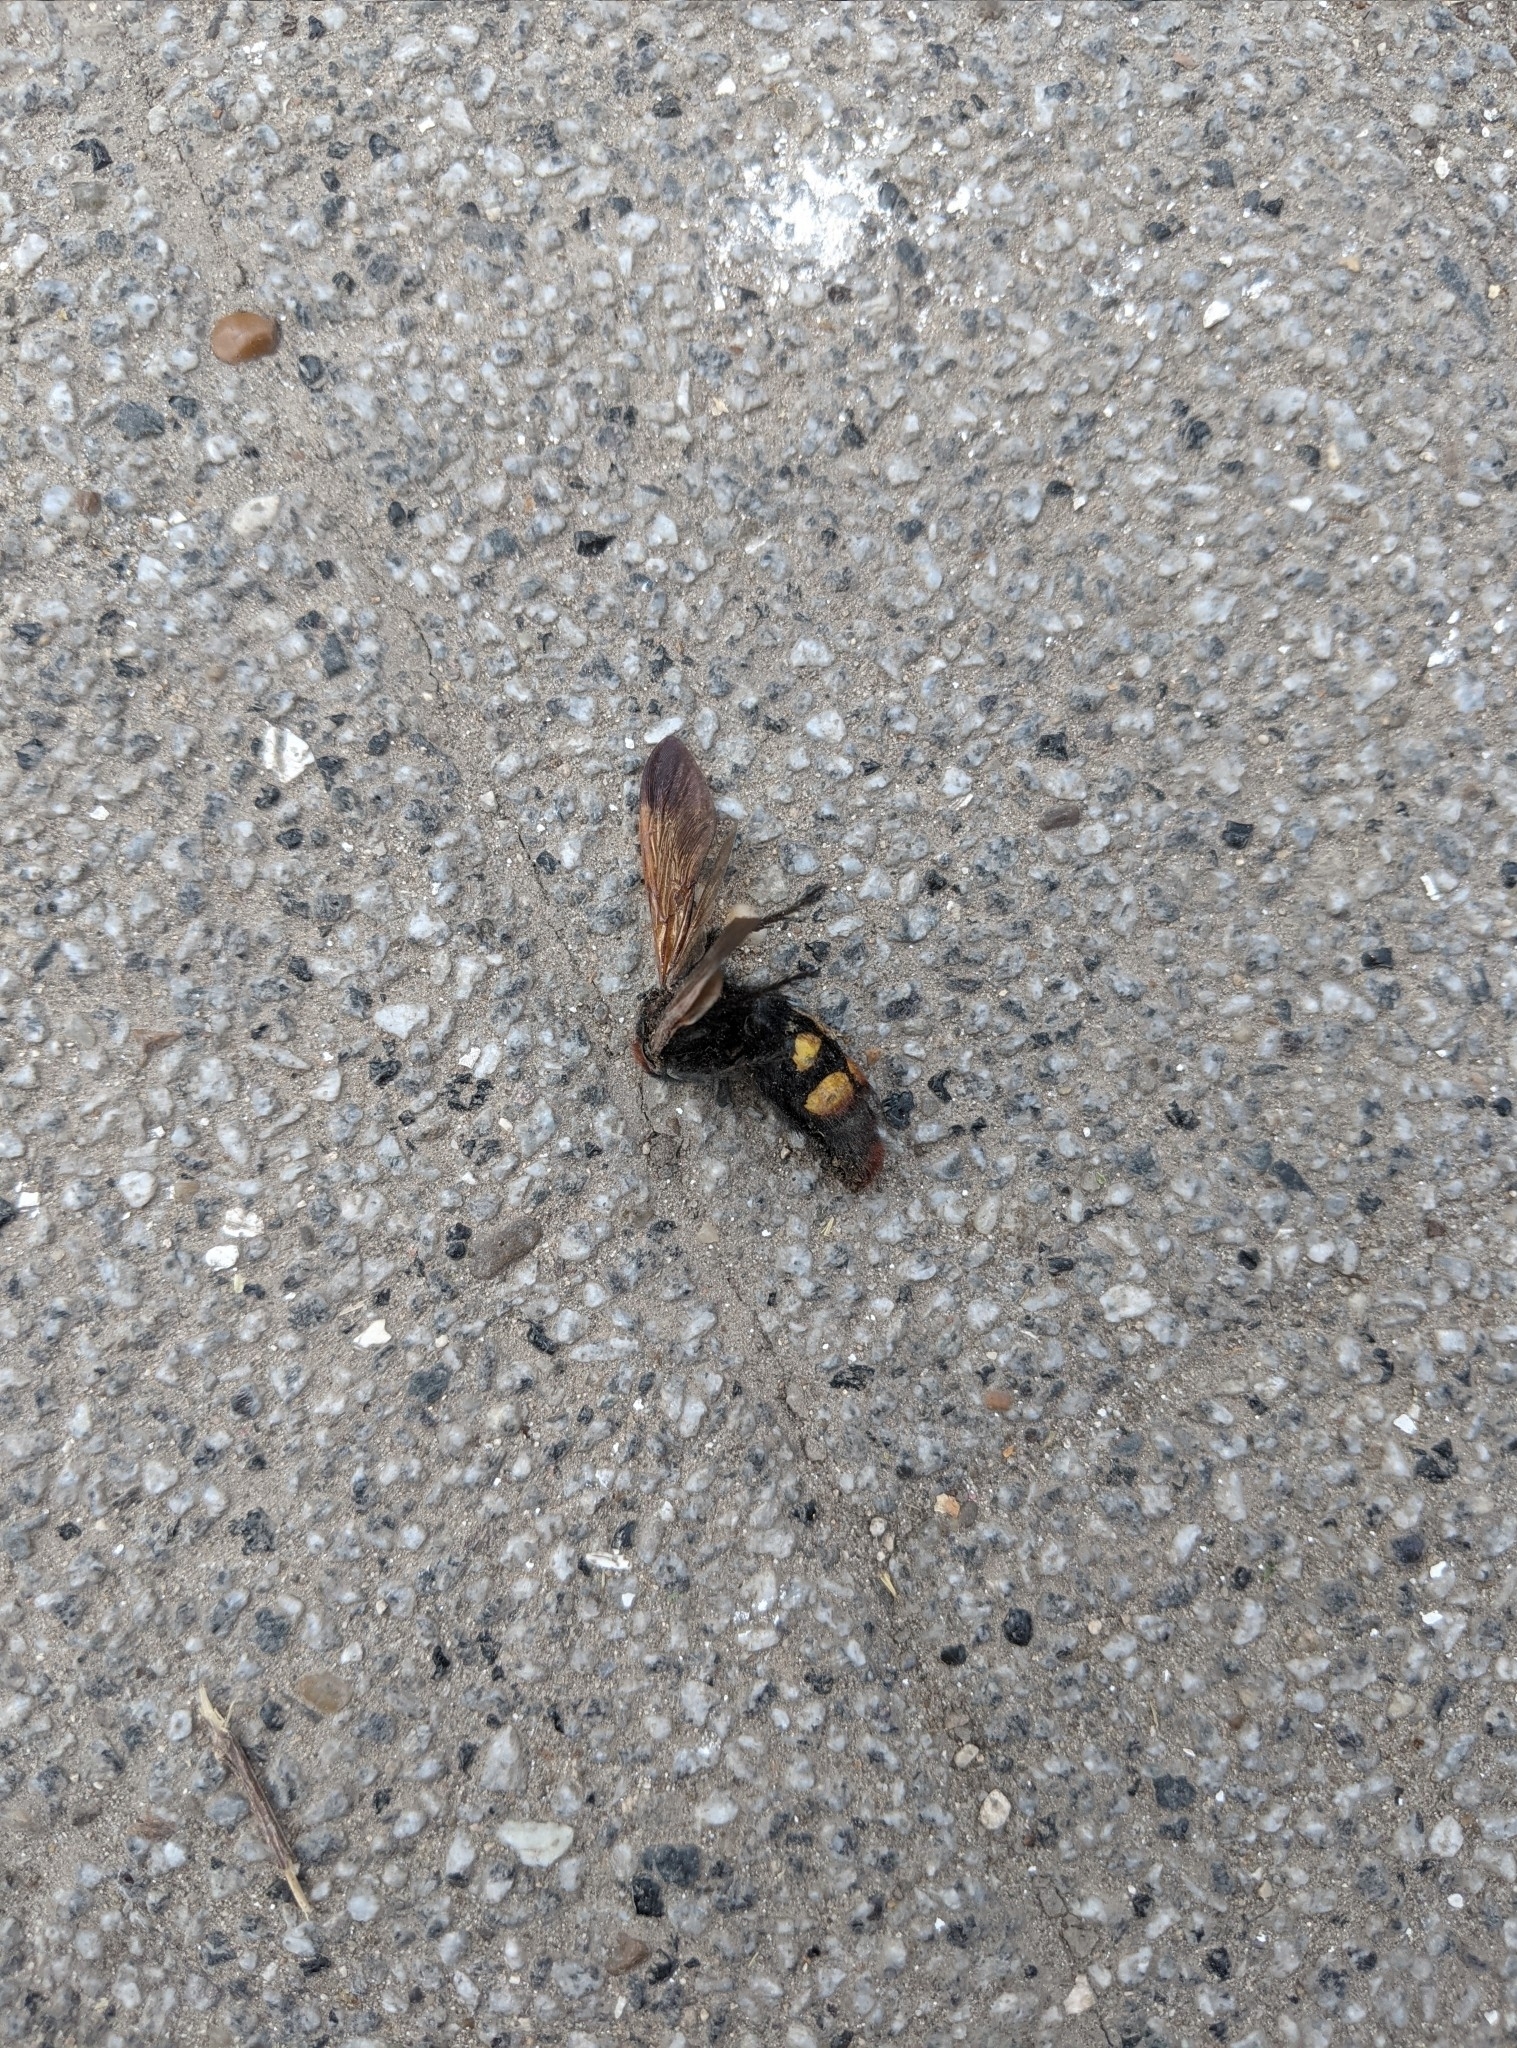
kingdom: Animalia
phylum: Arthropoda
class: Insecta
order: Hymenoptera
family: Scoliidae
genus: Megascolia
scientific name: Megascolia maculata
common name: Mammoth wasp
